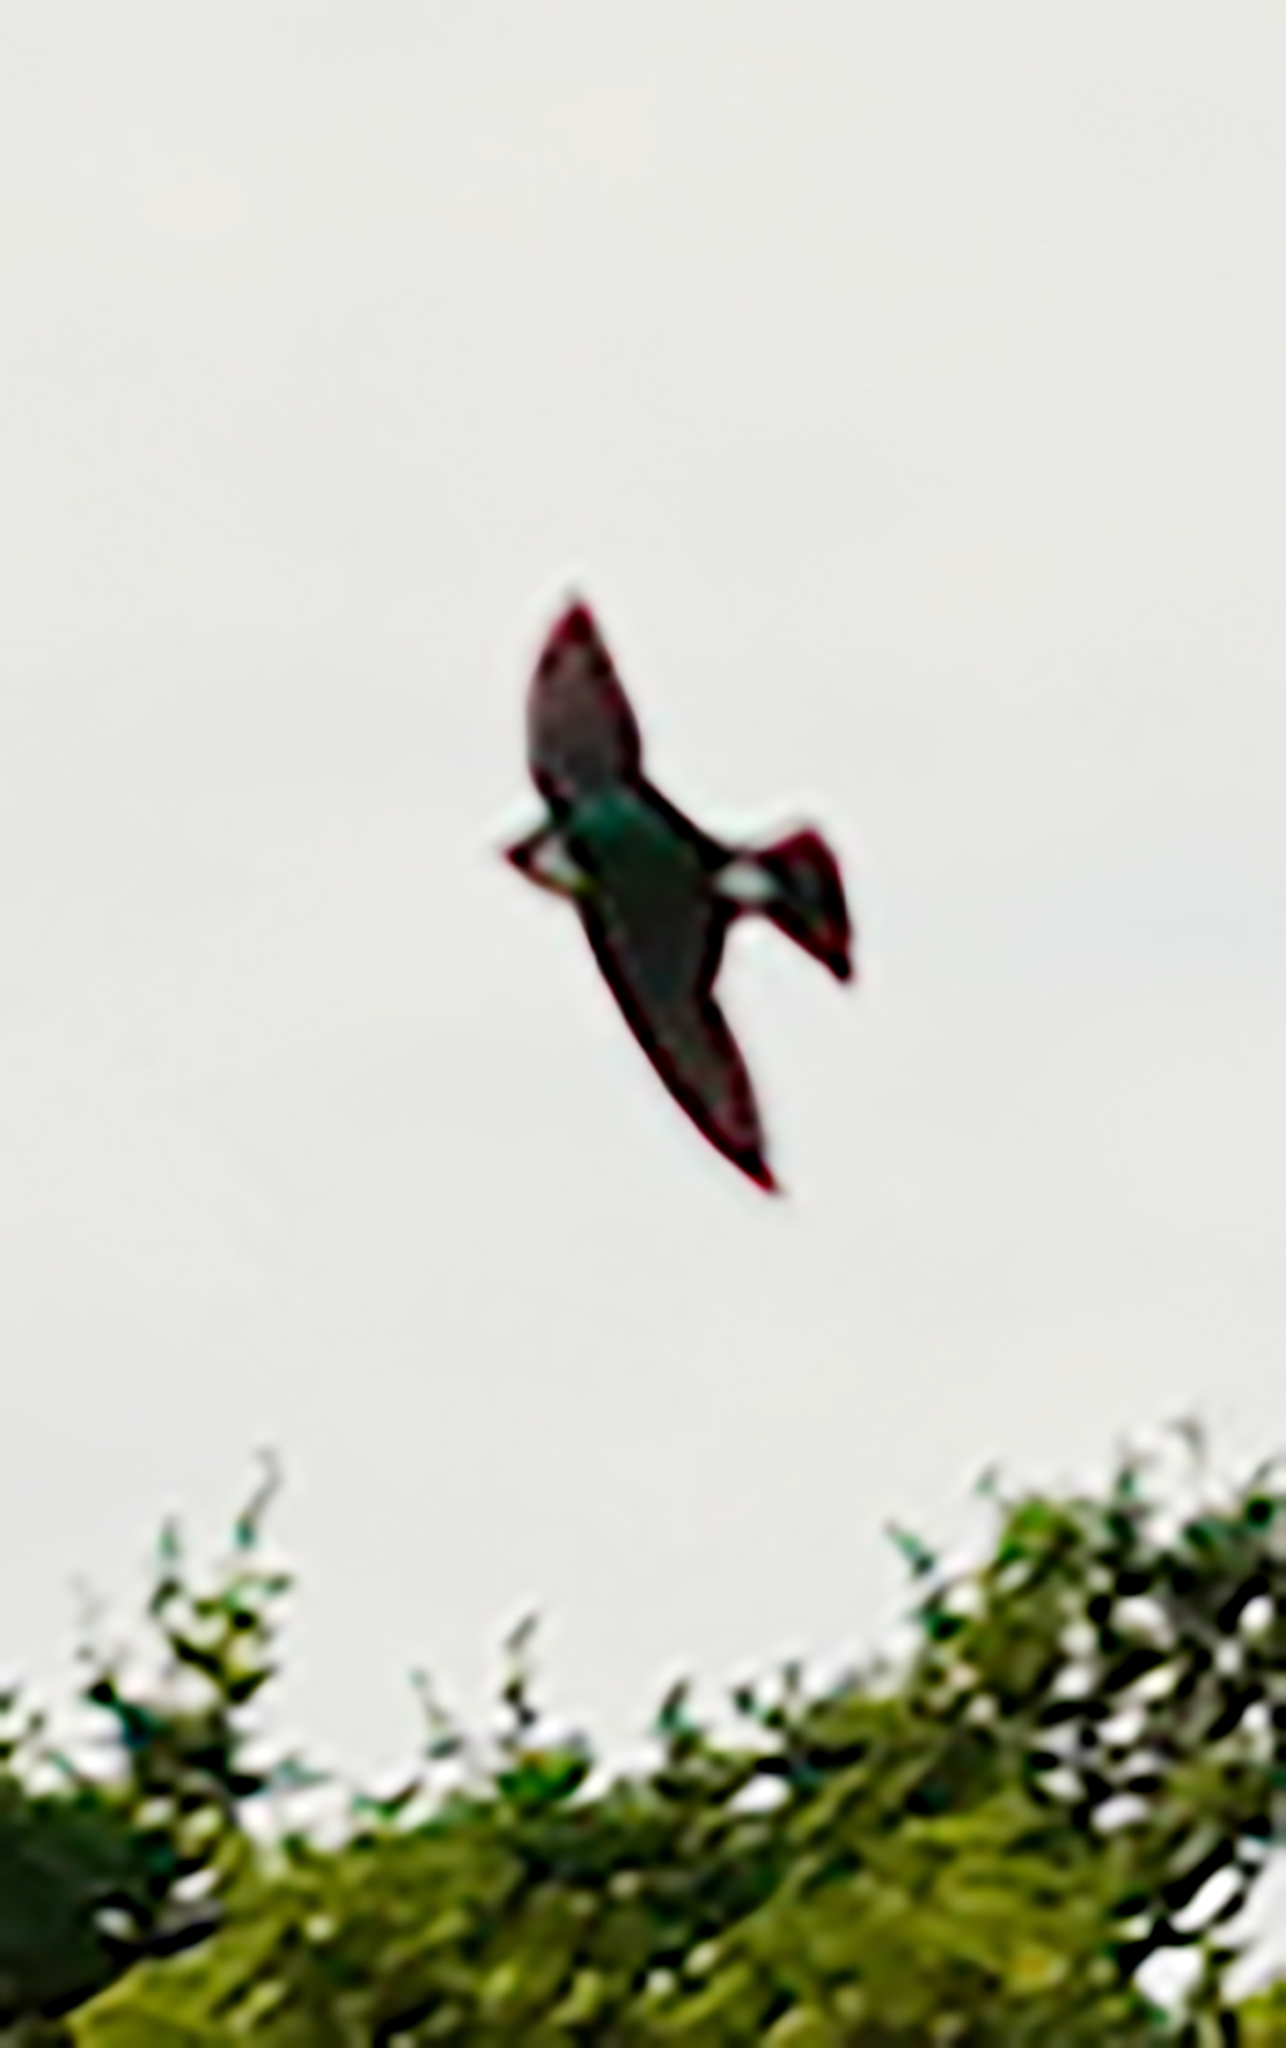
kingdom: Animalia
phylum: Chordata
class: Aves
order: Passeriformes
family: Hirundinidae
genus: Tachycineta
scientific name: Tachycineta thalassina
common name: Violet-green swallow
